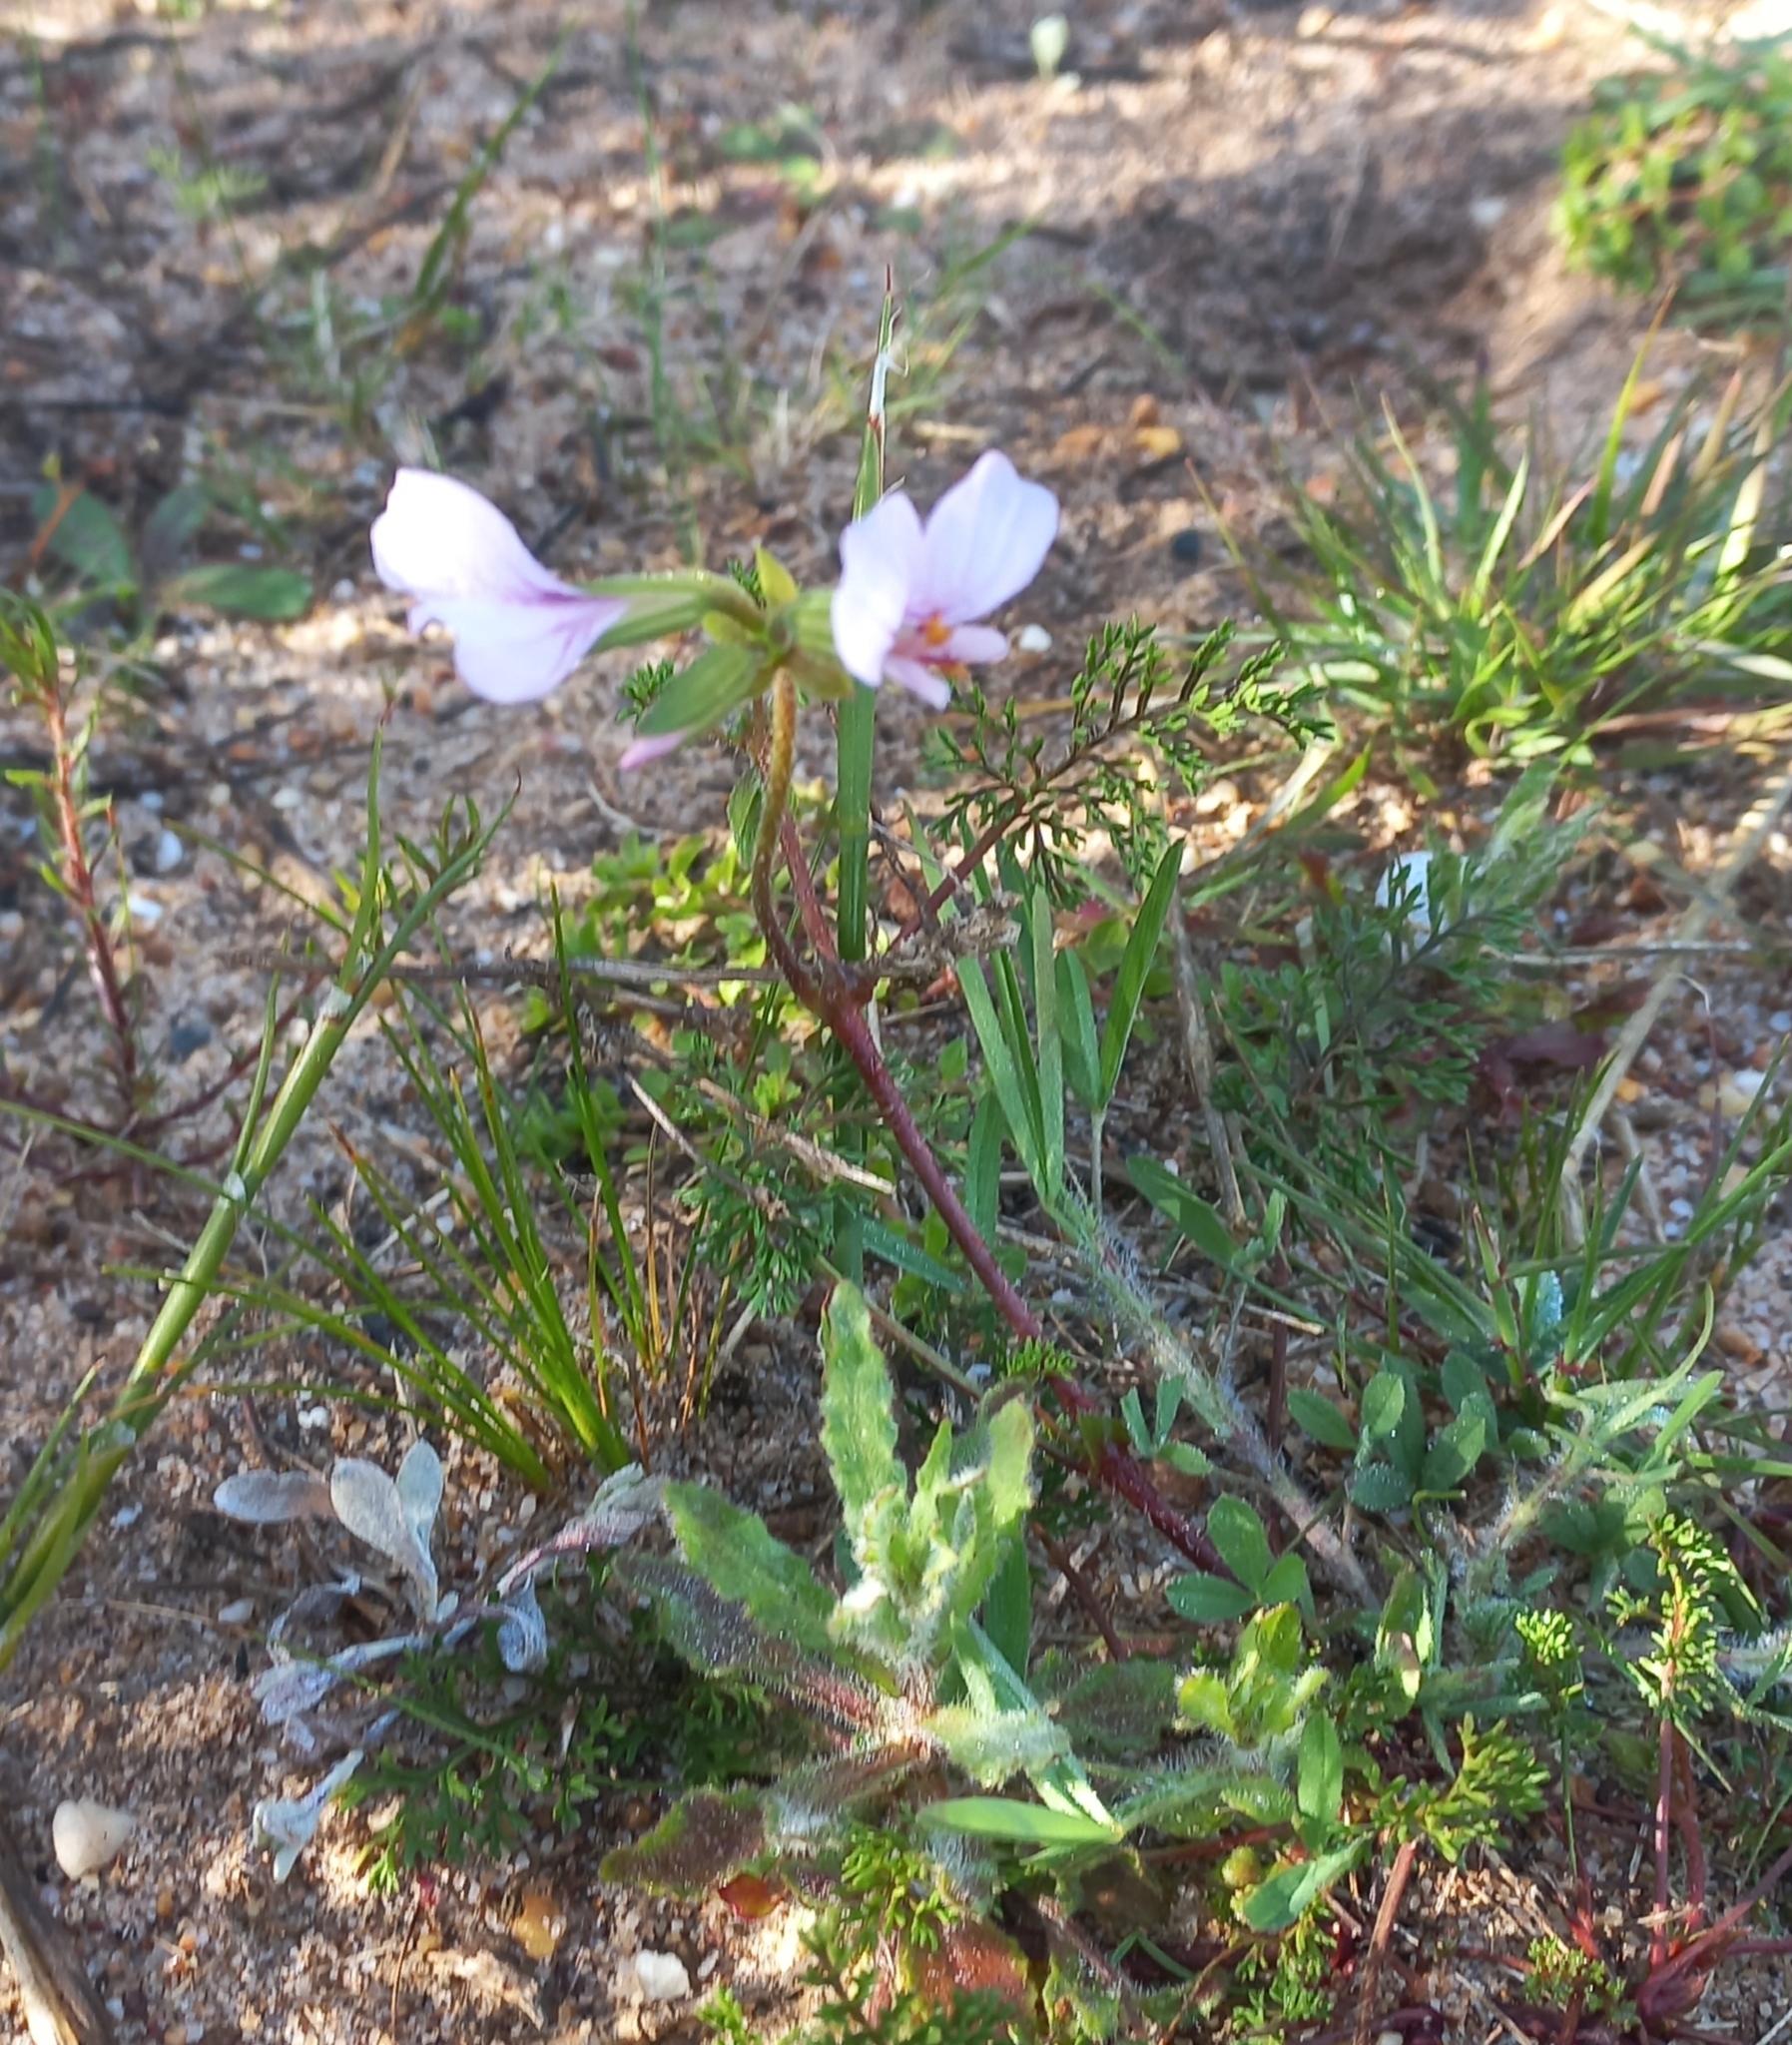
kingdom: Plantae
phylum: Tracheophyta
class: Magnoliopsida
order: Geraniales
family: Geraniaceae
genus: Pelargonium
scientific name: Pelargonium myrrhifolium
